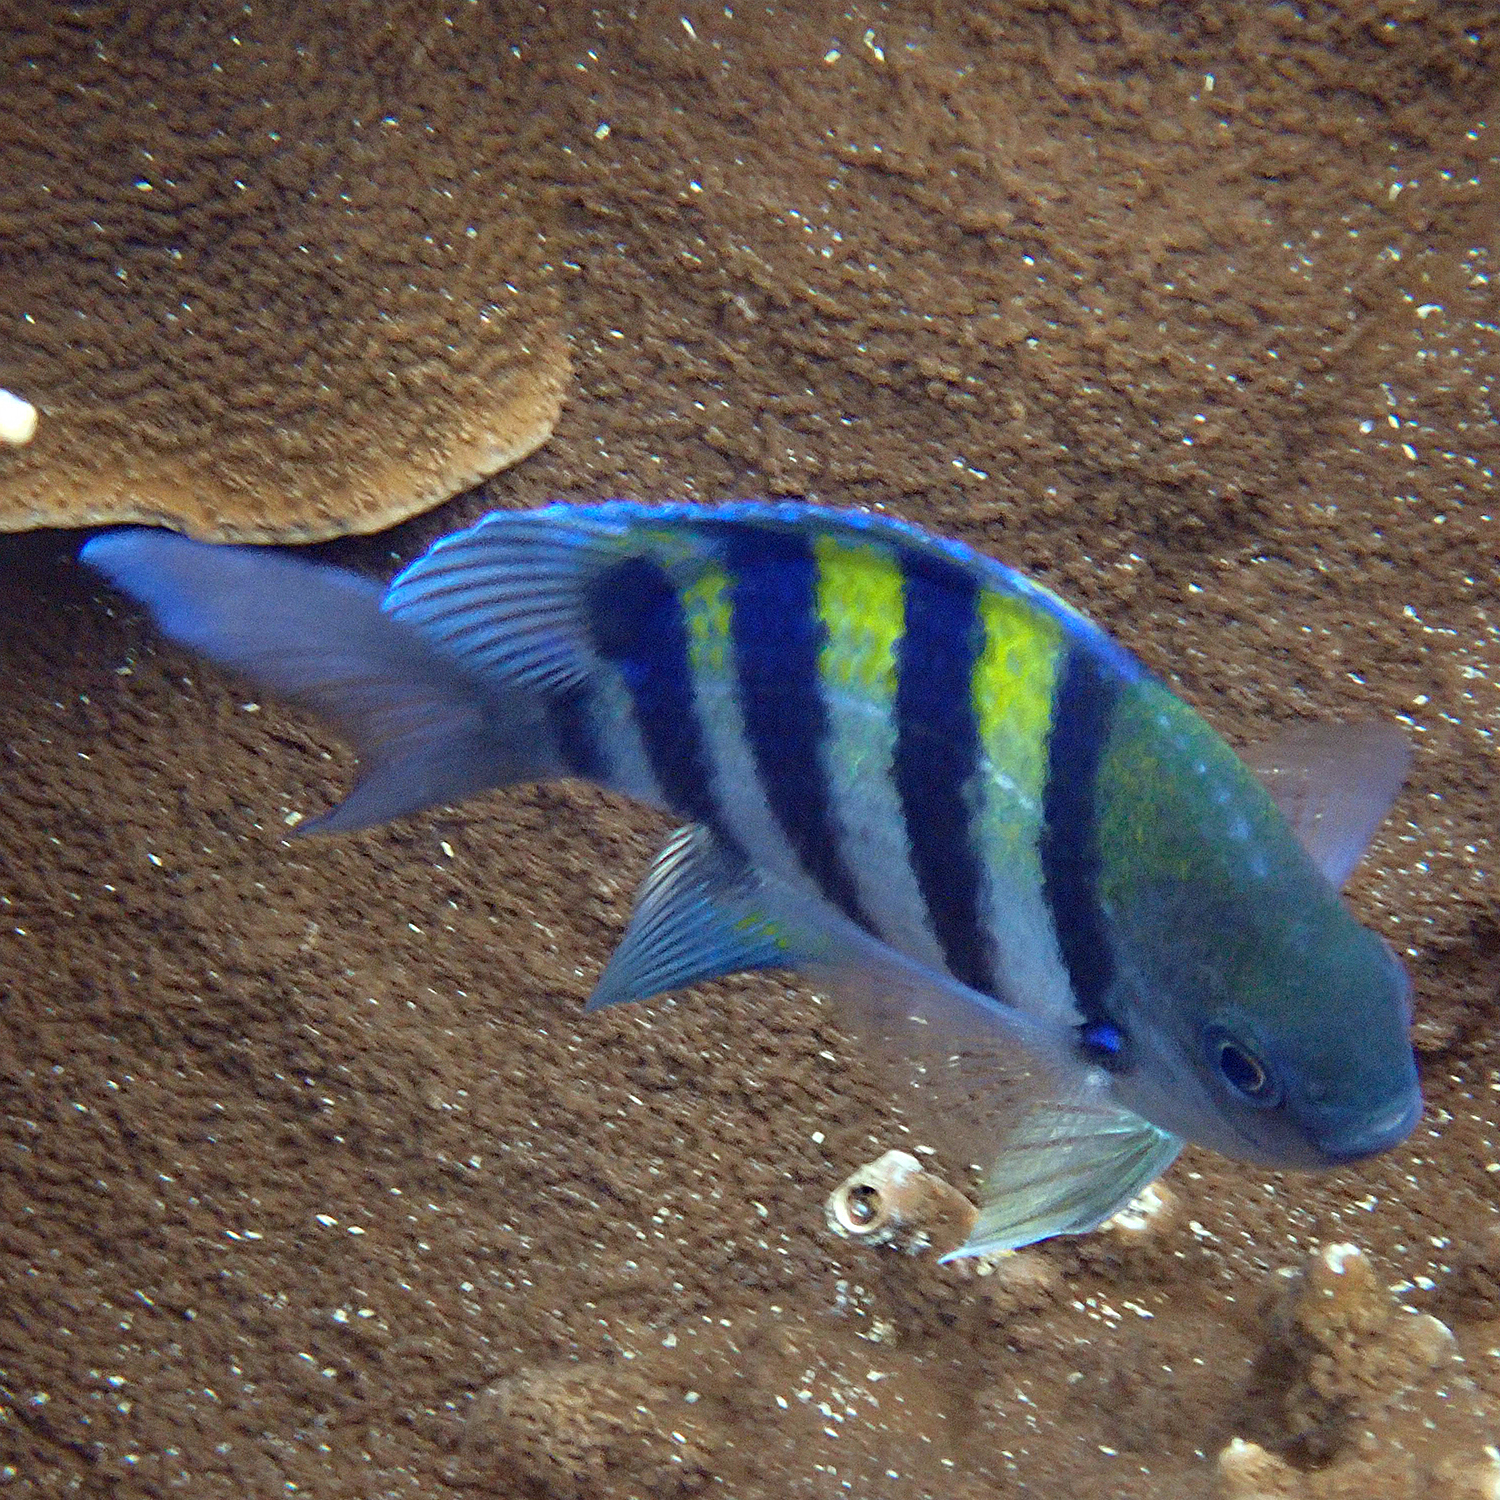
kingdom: Animalia
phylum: Chordata
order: Perciformes
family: Pomacentridae
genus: Abudefduf
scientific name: Abudefduf vaigiensis
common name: Indo-pacific sergeant
